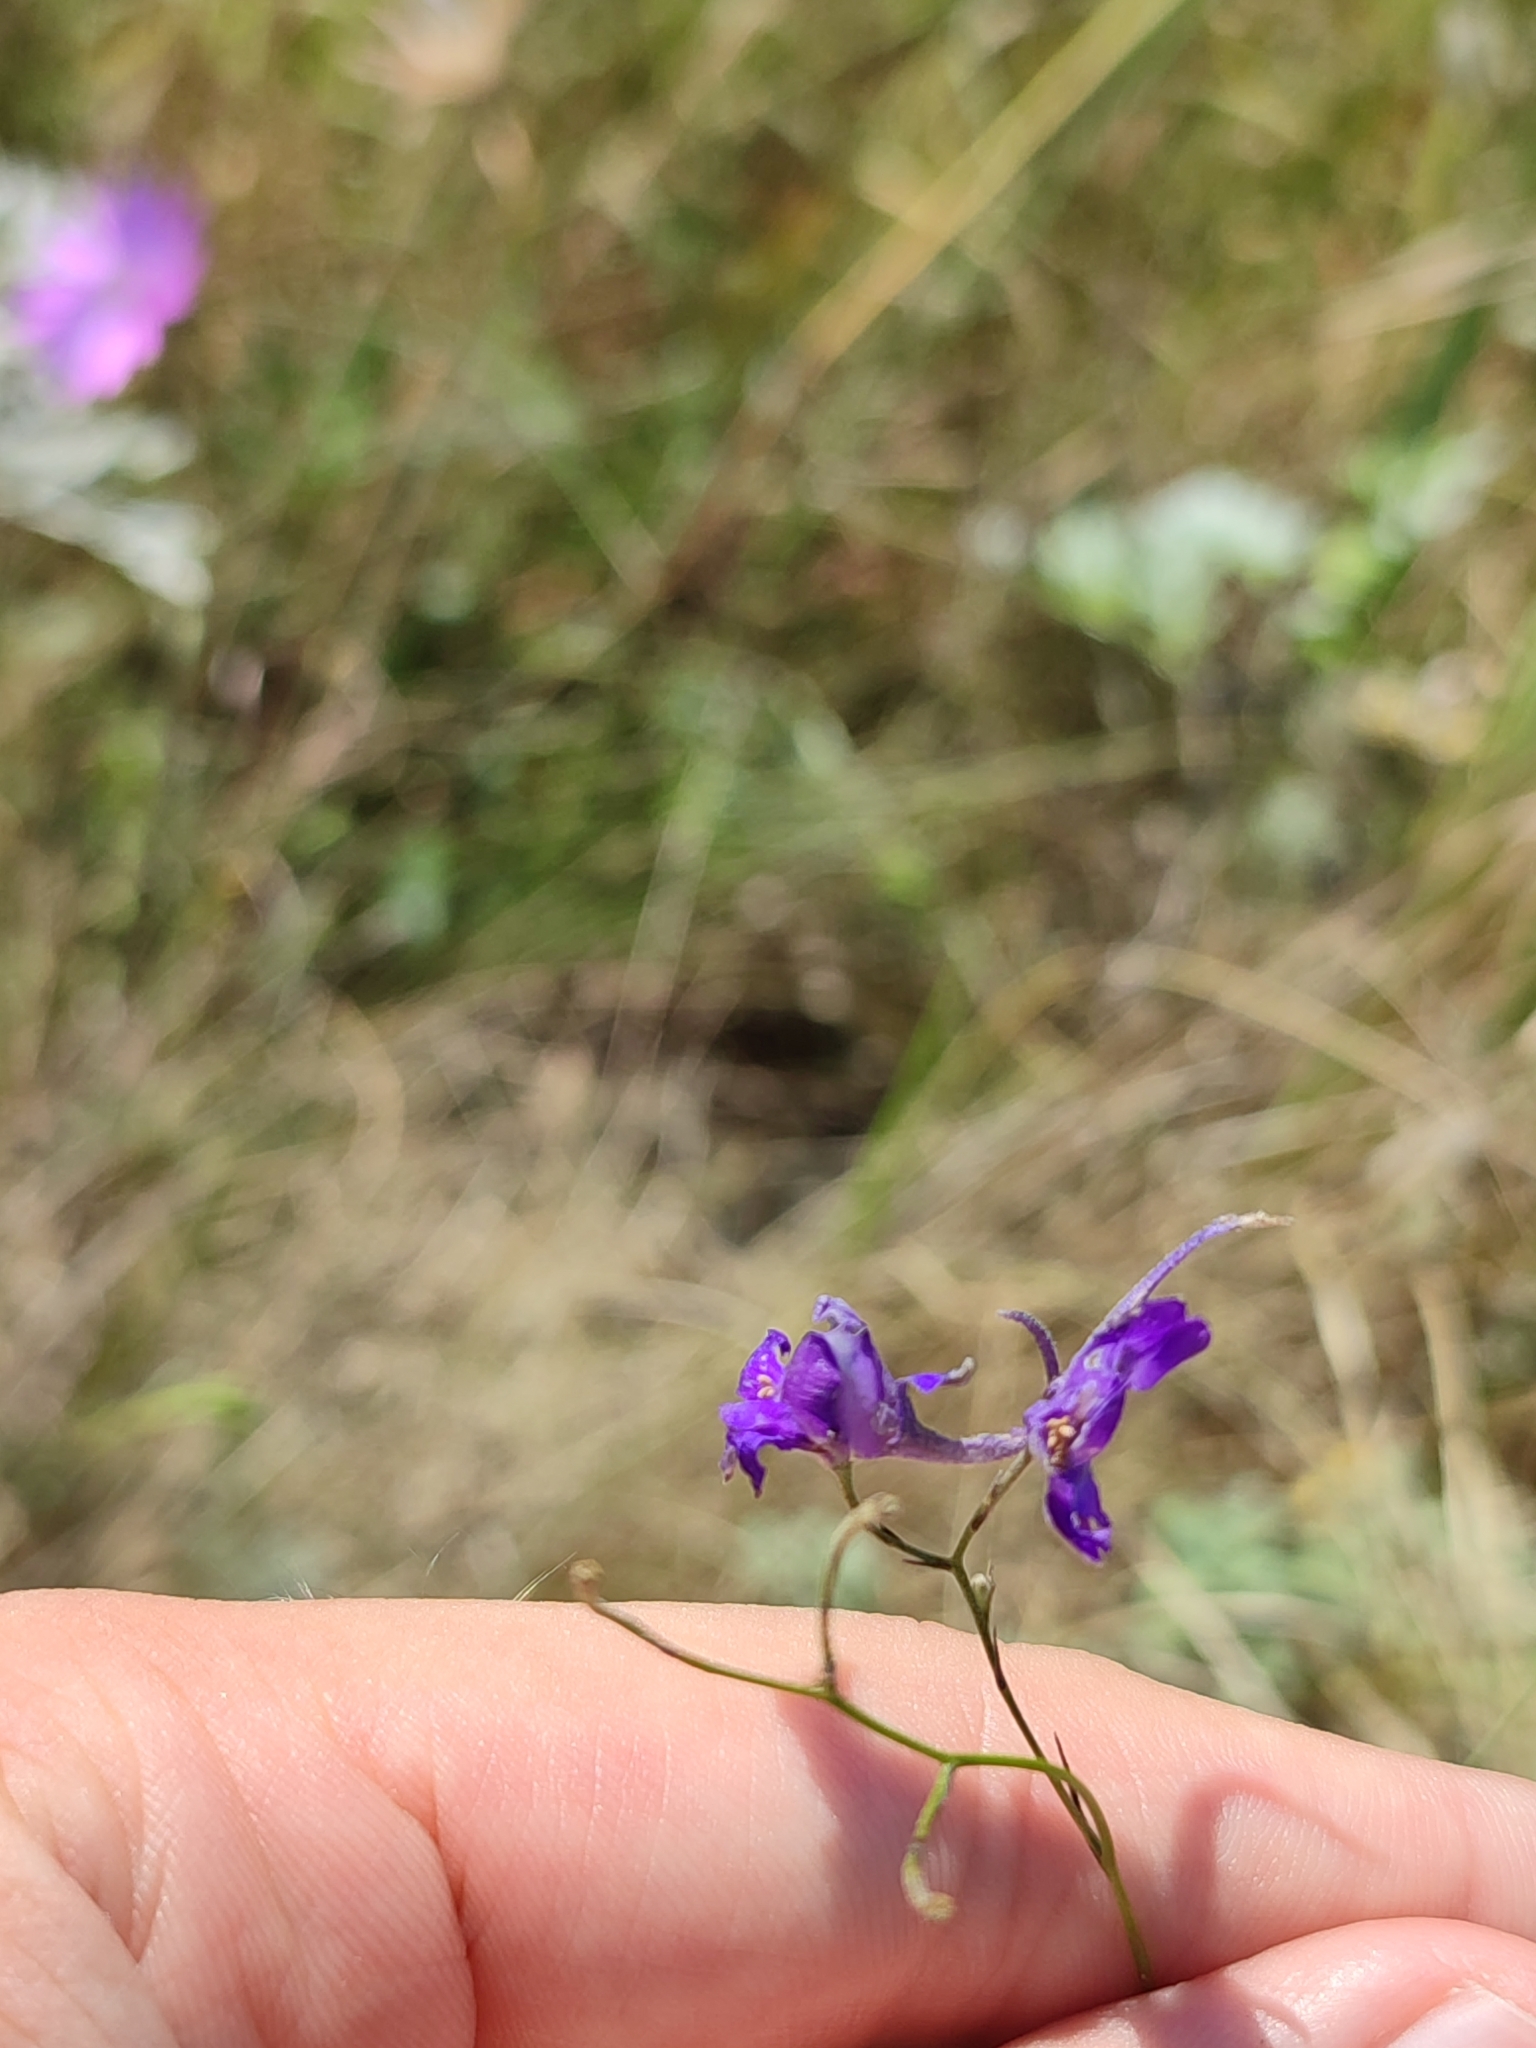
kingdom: Plantae
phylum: Tracheophyta
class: Magnoliopsida
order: Ranunculales
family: Ranunculaceae
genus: Delphinium
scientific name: Delphinium consolida
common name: Branching larkspur
